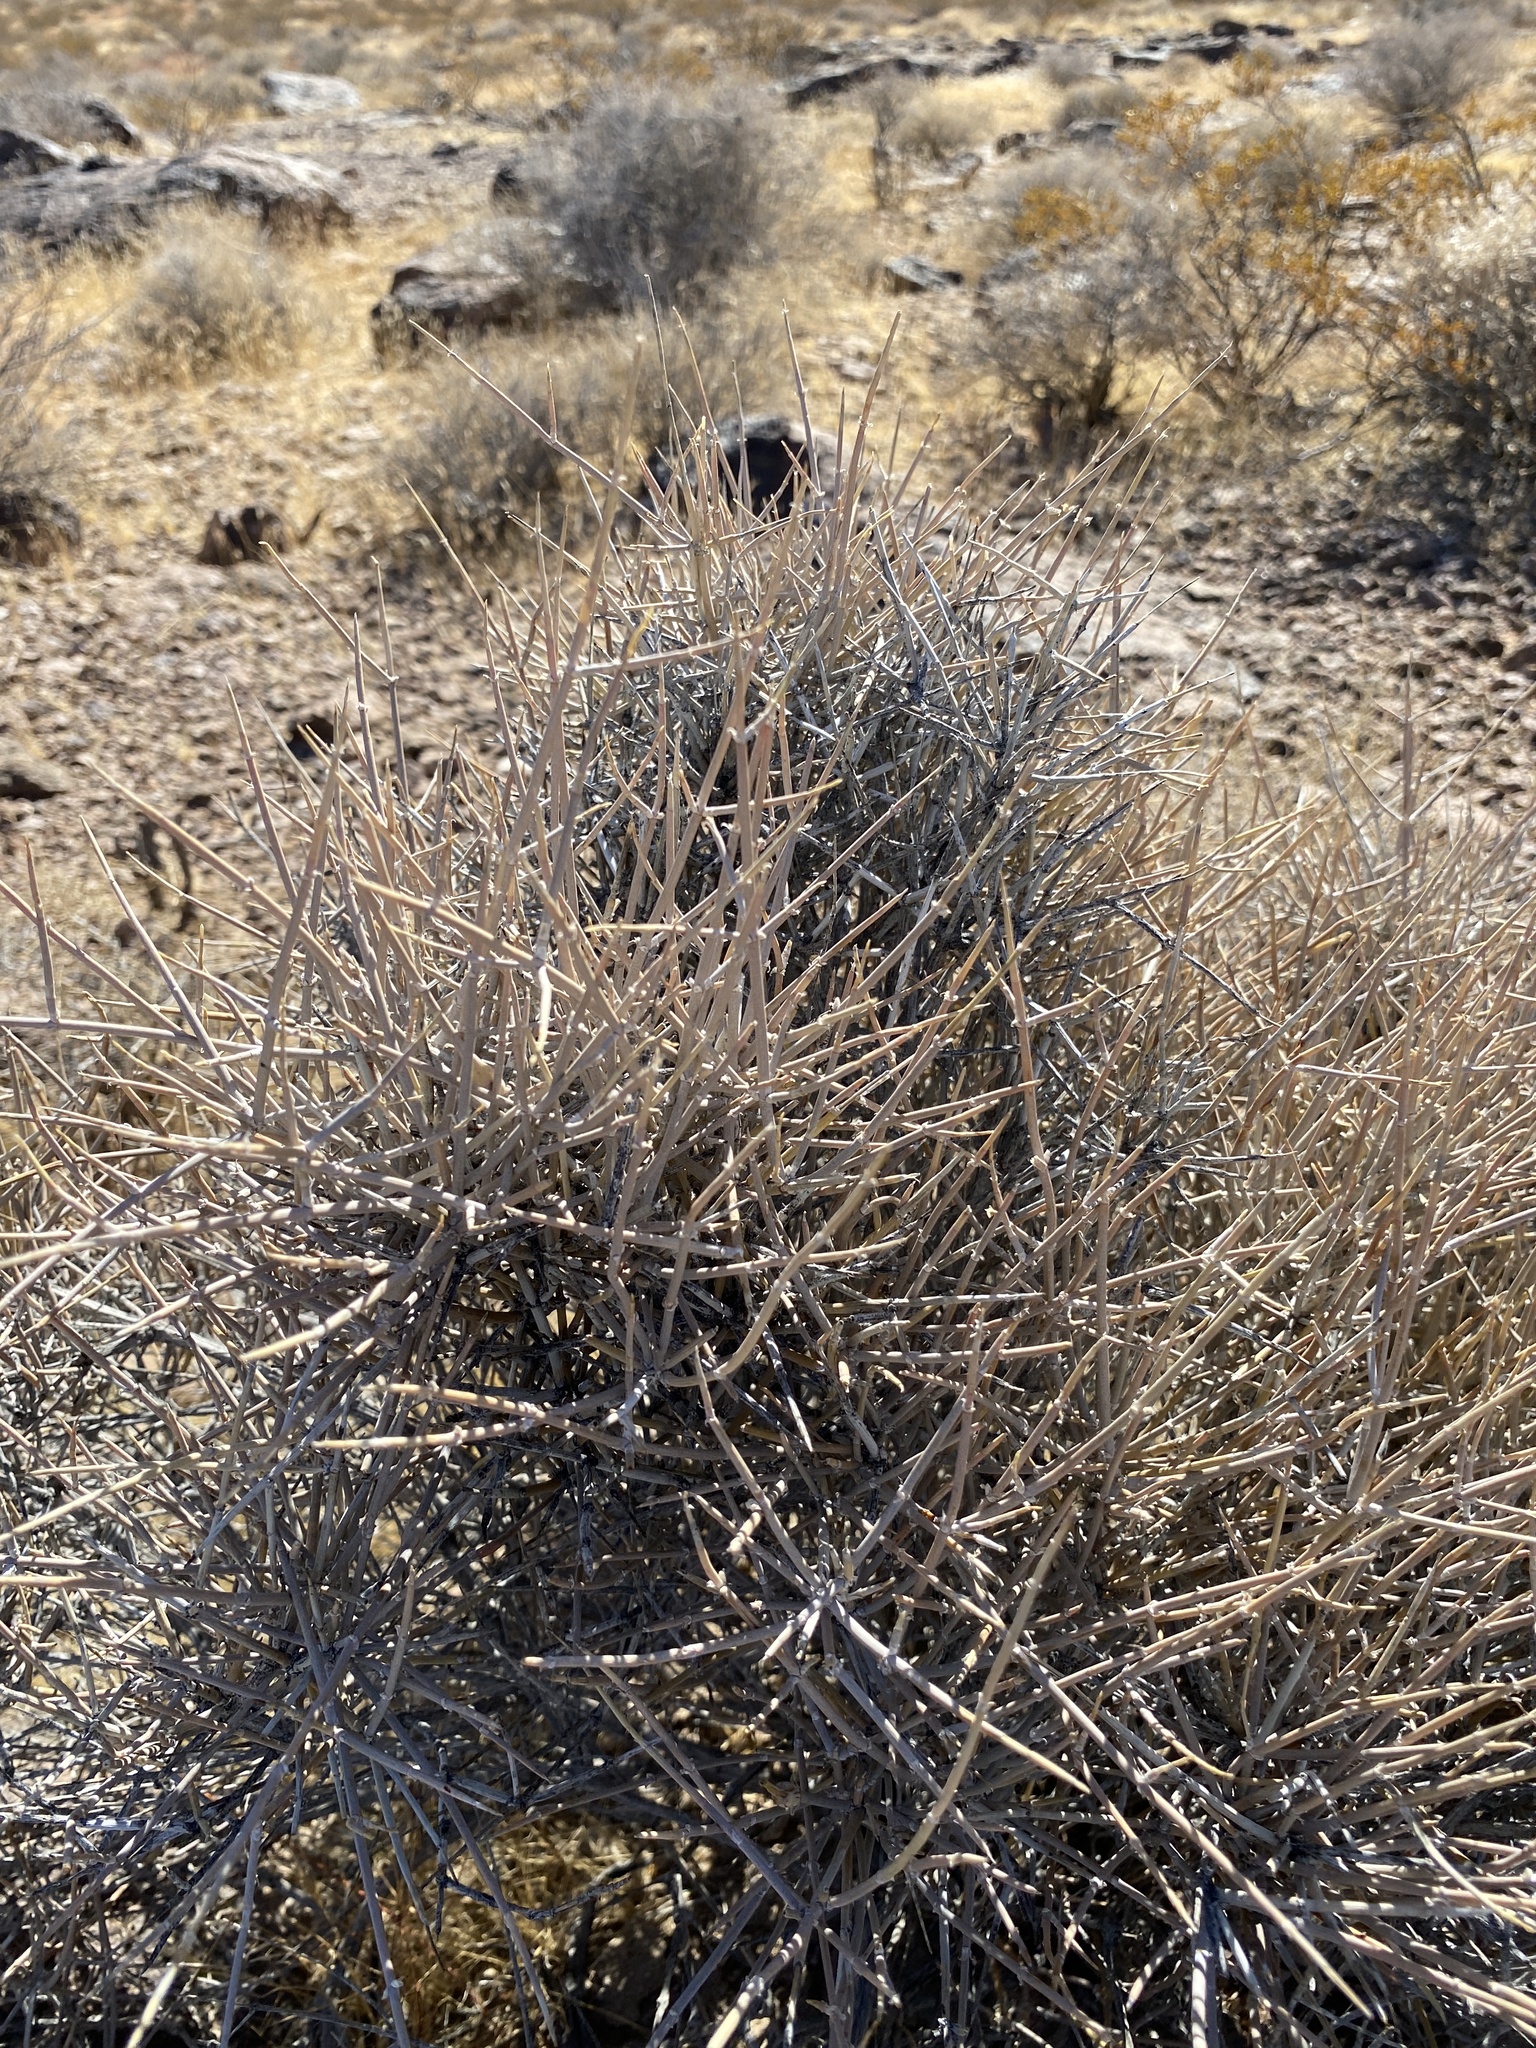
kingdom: Plantae
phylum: Tracheophyta
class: Gnetopsida
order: Ephedrales
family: Ephedraceae
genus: Ephedra
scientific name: Ephedra nevadensis
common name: Gray ephedra
